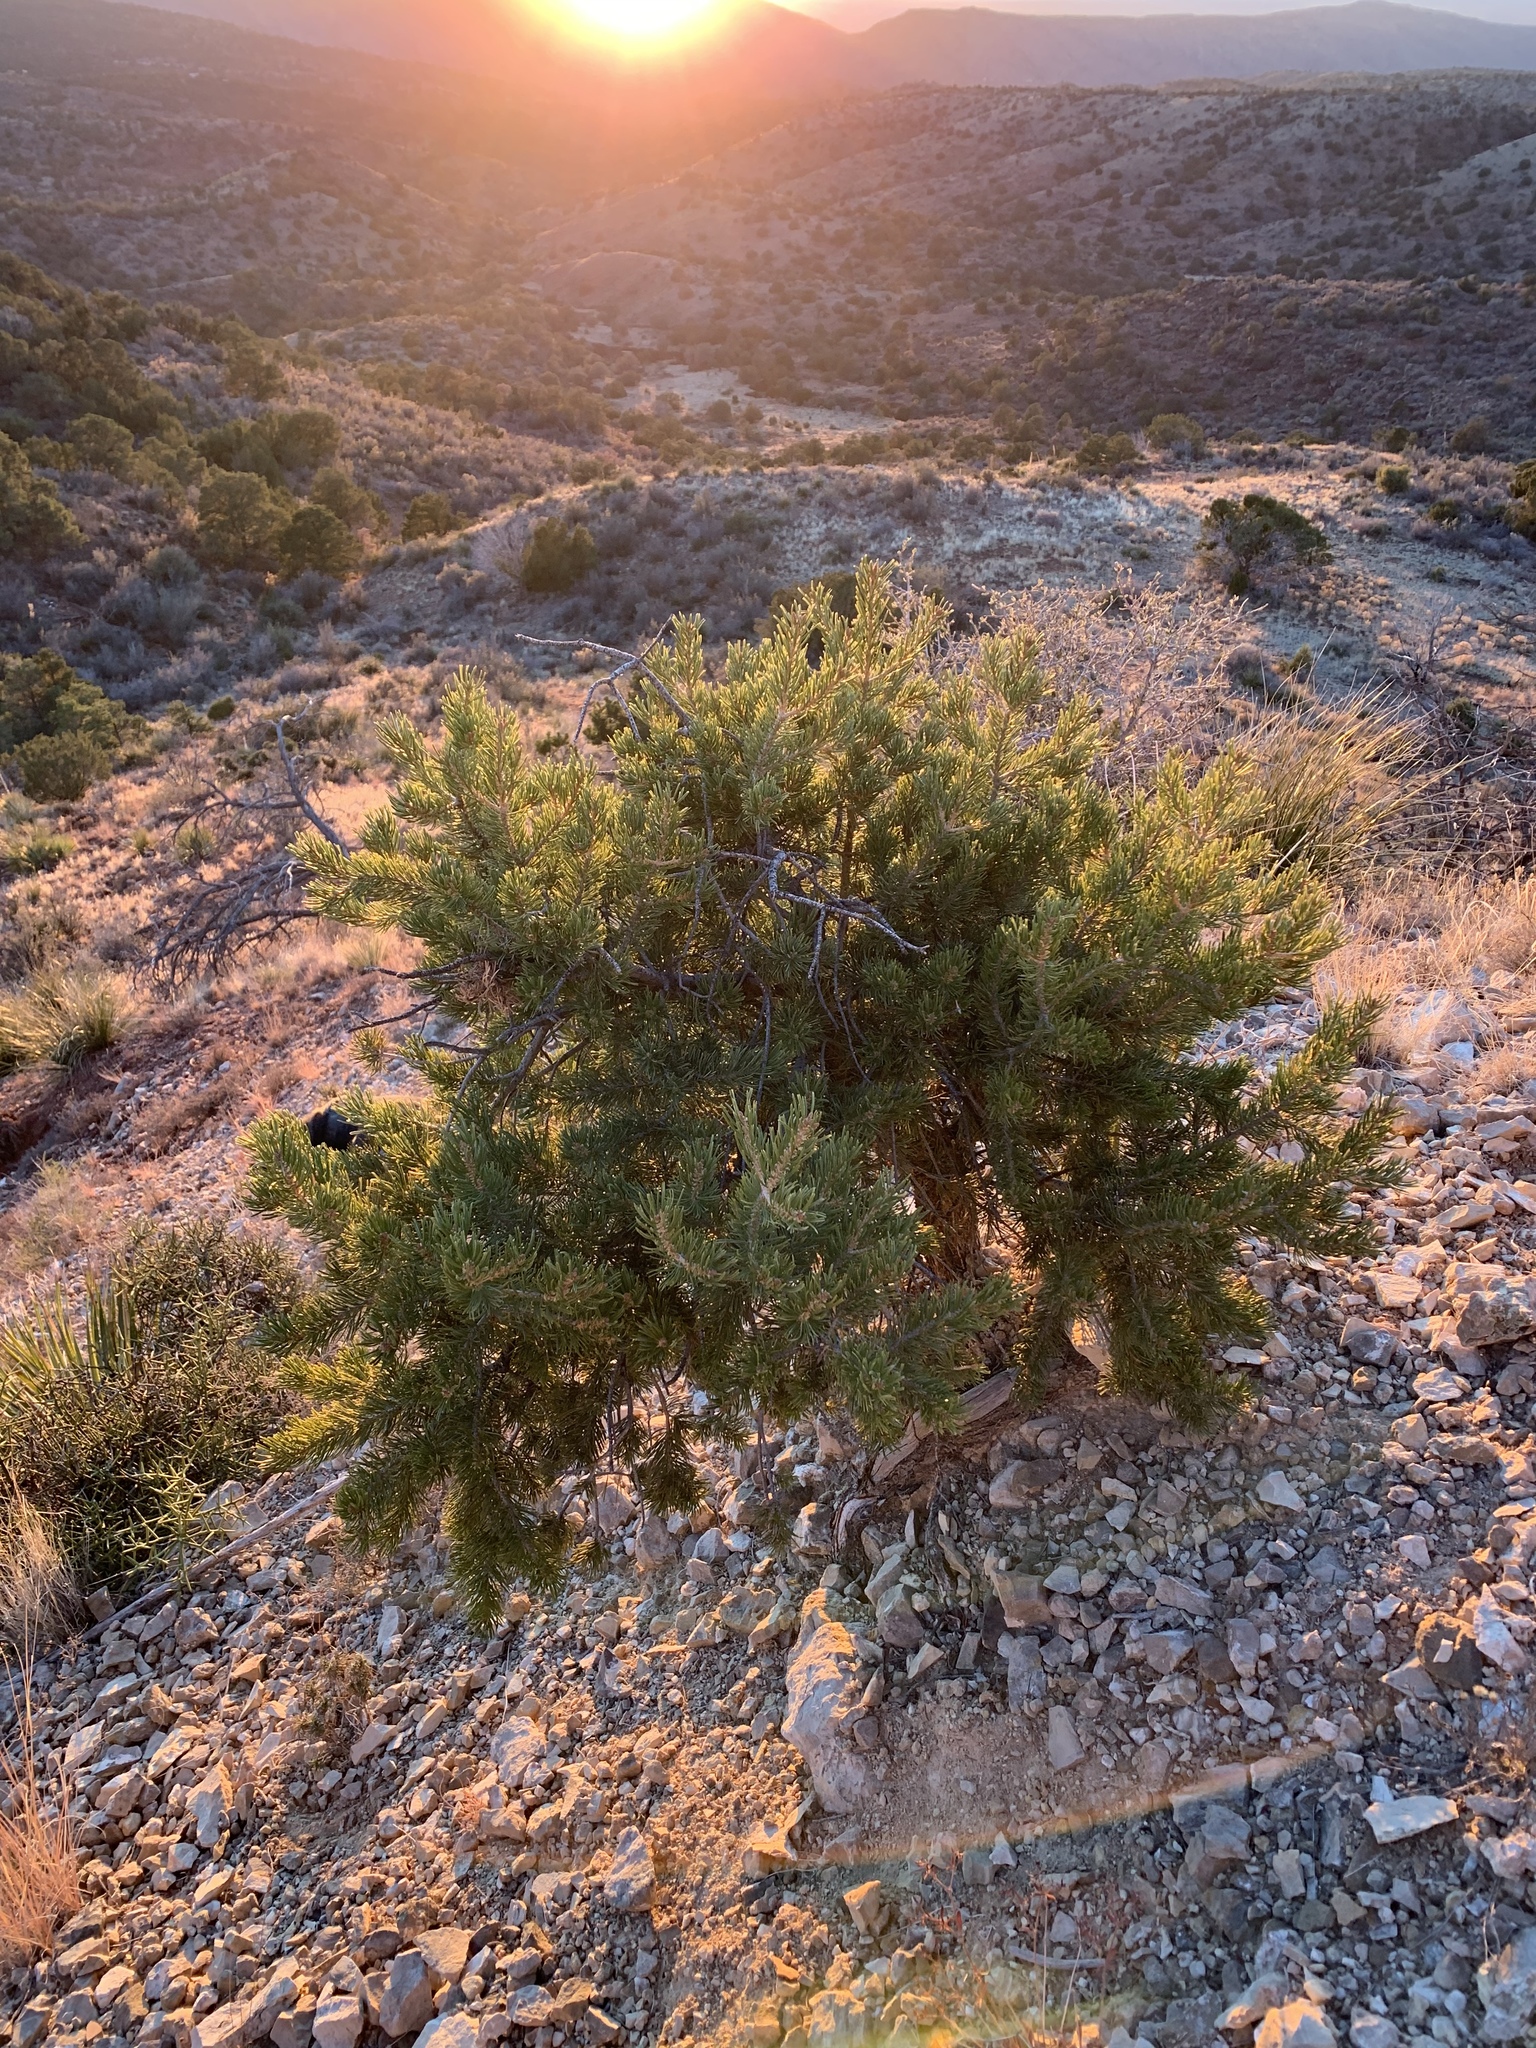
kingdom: Plantae
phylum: Tracheophyta
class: Pinopsida
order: Pinales
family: Pinaceae
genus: Pinus
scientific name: Pinus edulis
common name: Colorado pinyon
